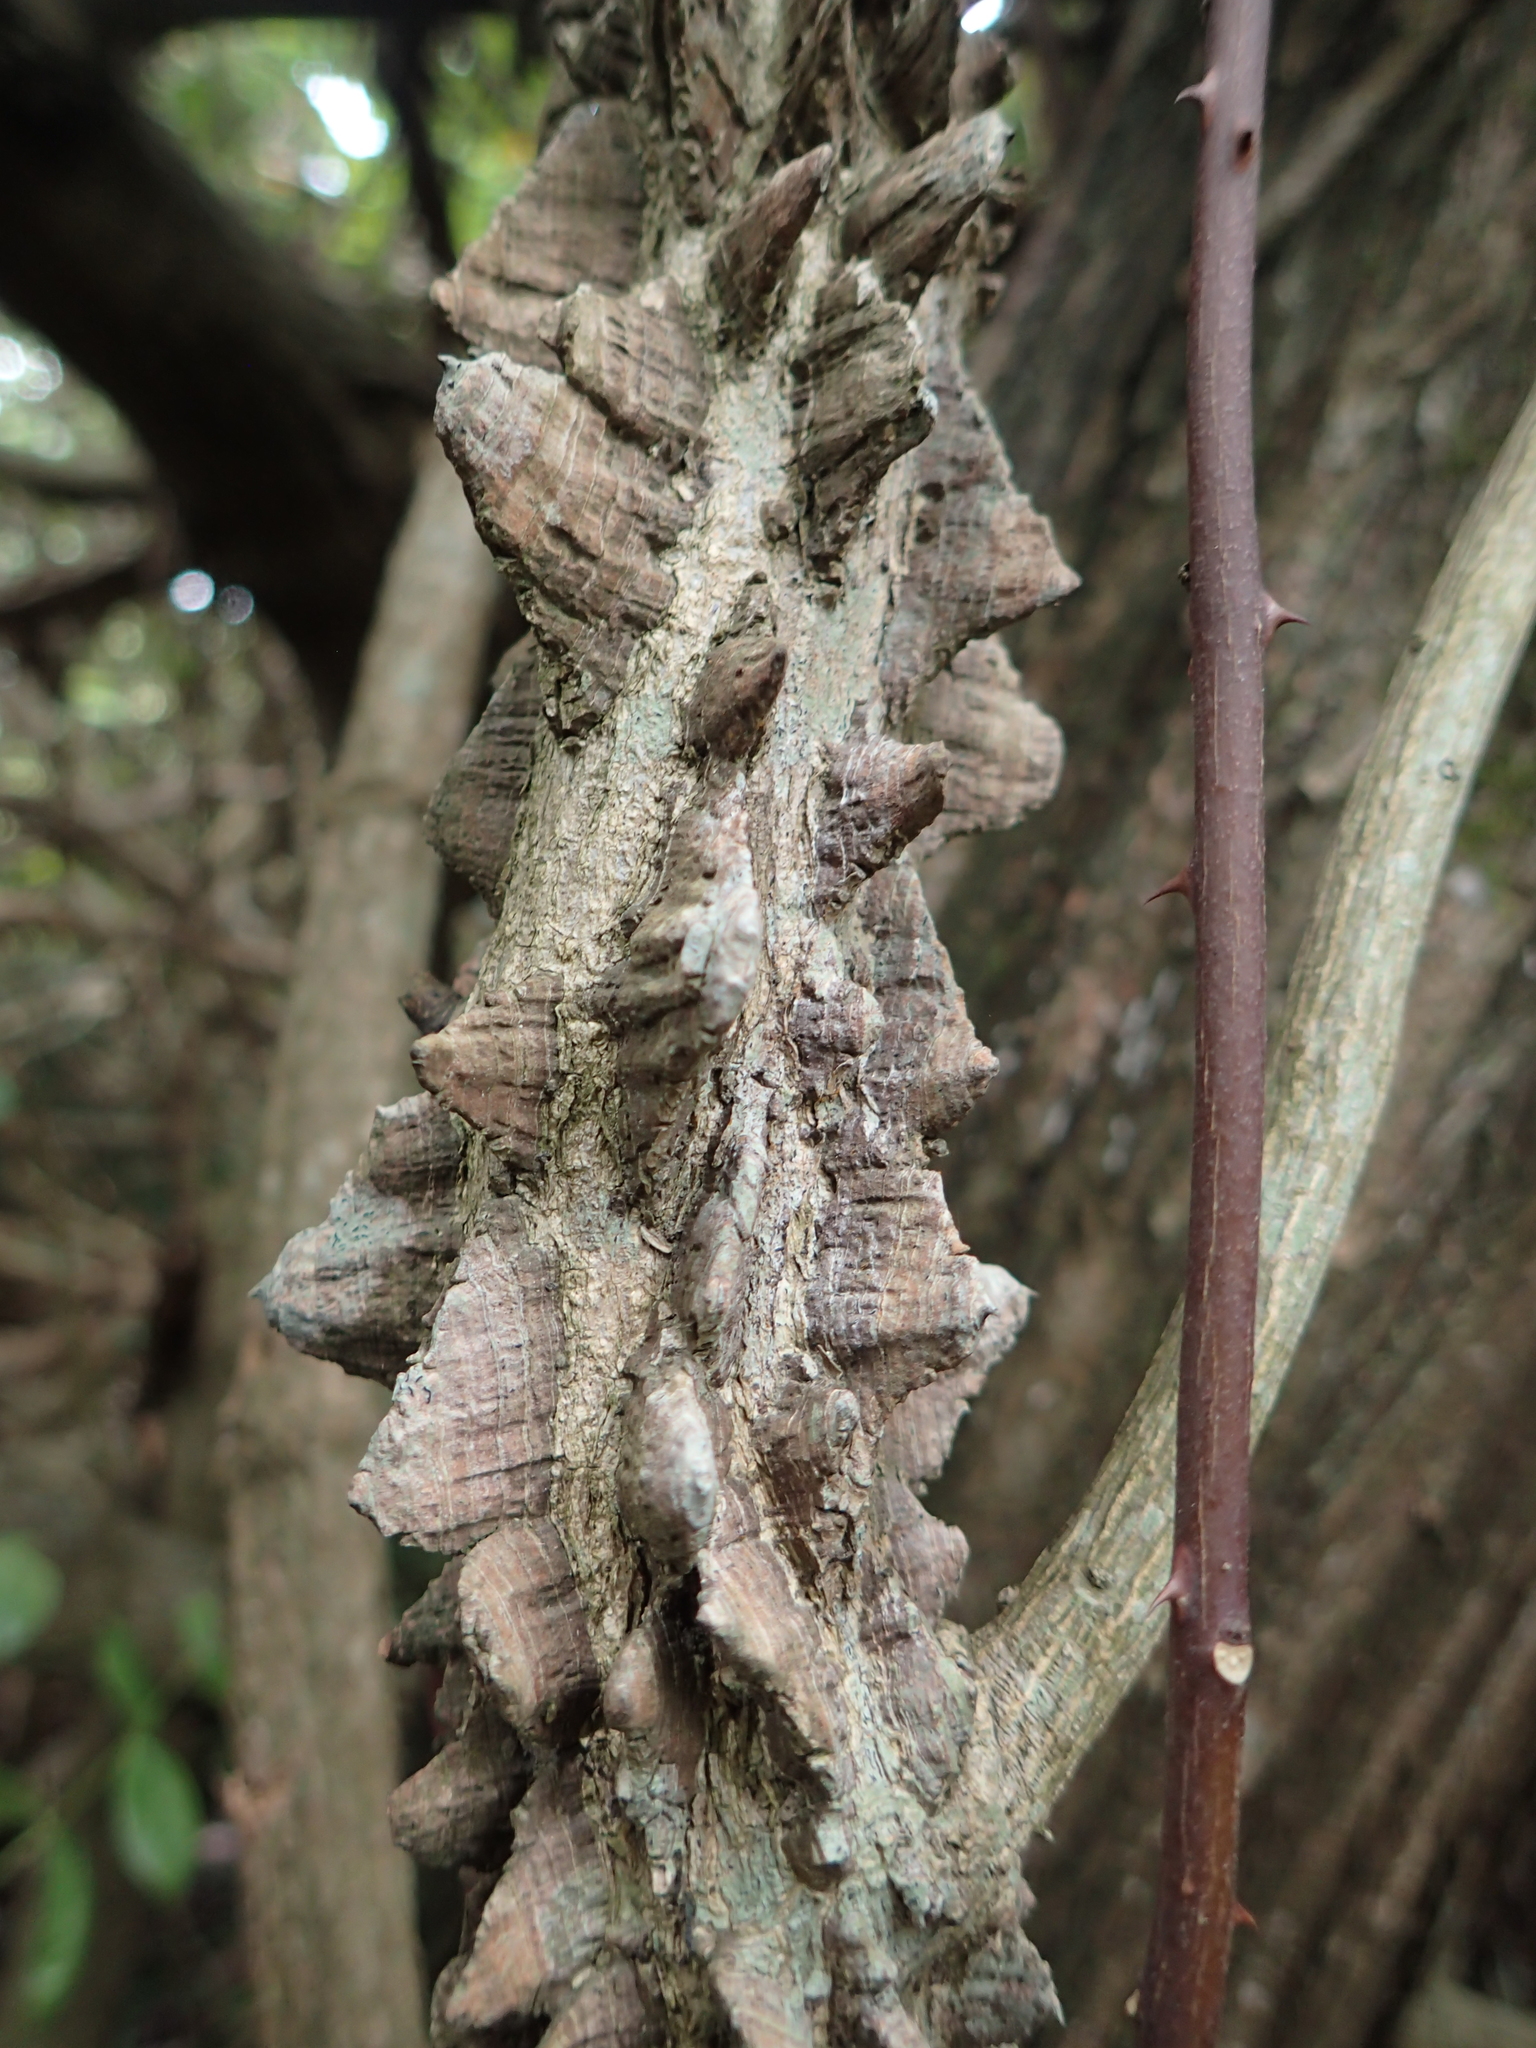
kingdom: Plantae
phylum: Tracheophyta
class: Magnoliopsida
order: Sapindales
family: Rutaceae
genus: Zanthoxylum
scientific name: Zanthoxylum nitidum
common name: Shiny-leaf prickly-ash
